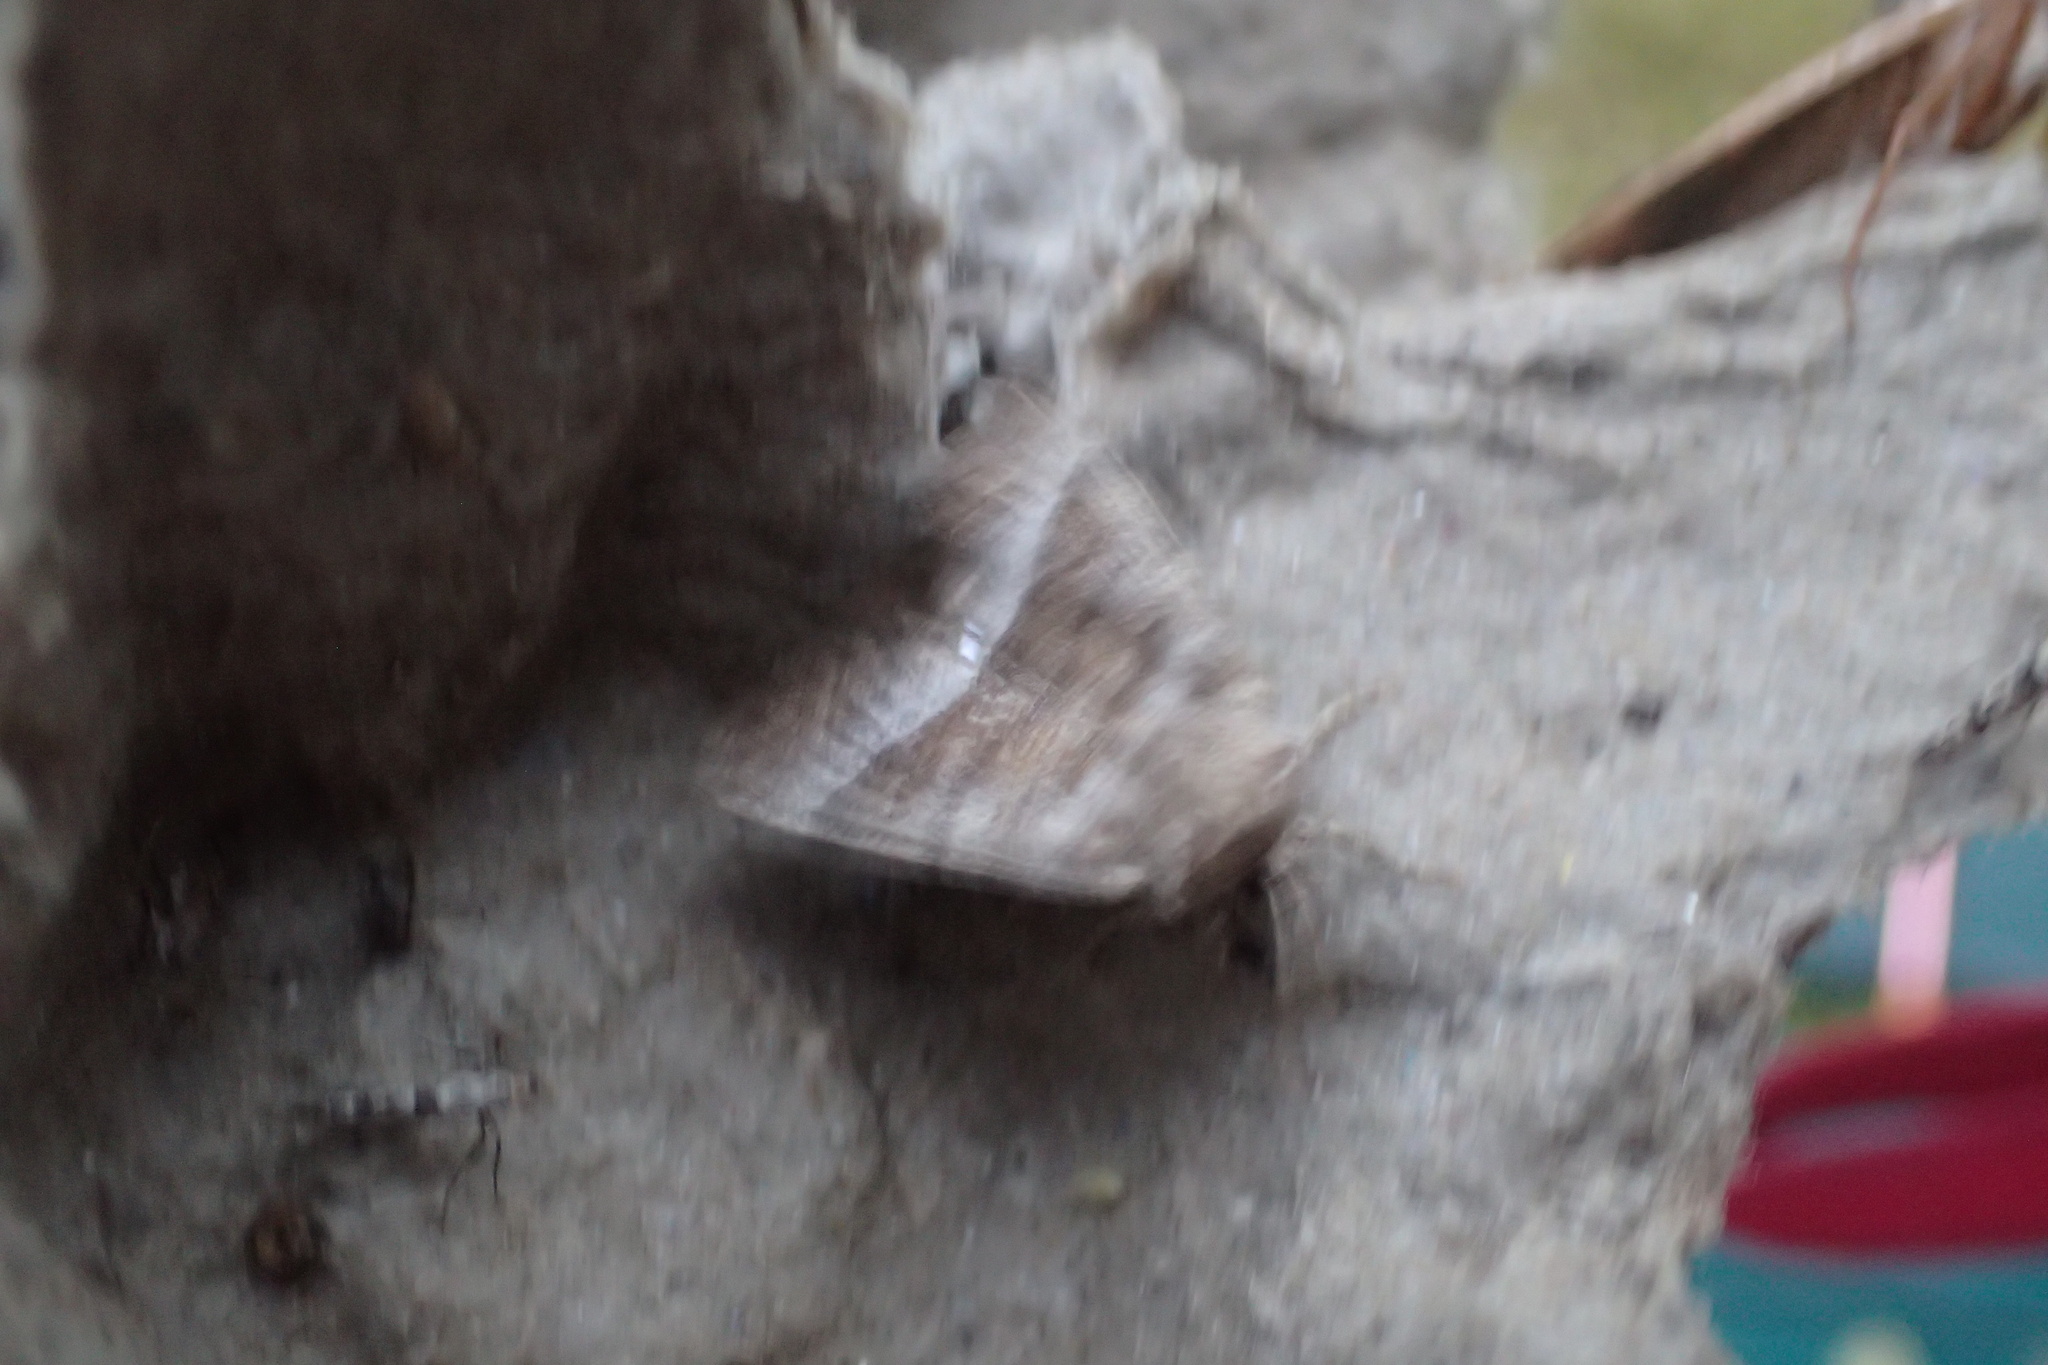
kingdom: Animalia
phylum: Arthropoda
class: Insecta
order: Lepidoptera
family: Noctuidae
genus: Papaipema
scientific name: Papaipema eupatorii
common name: Eupatorium borer moth
